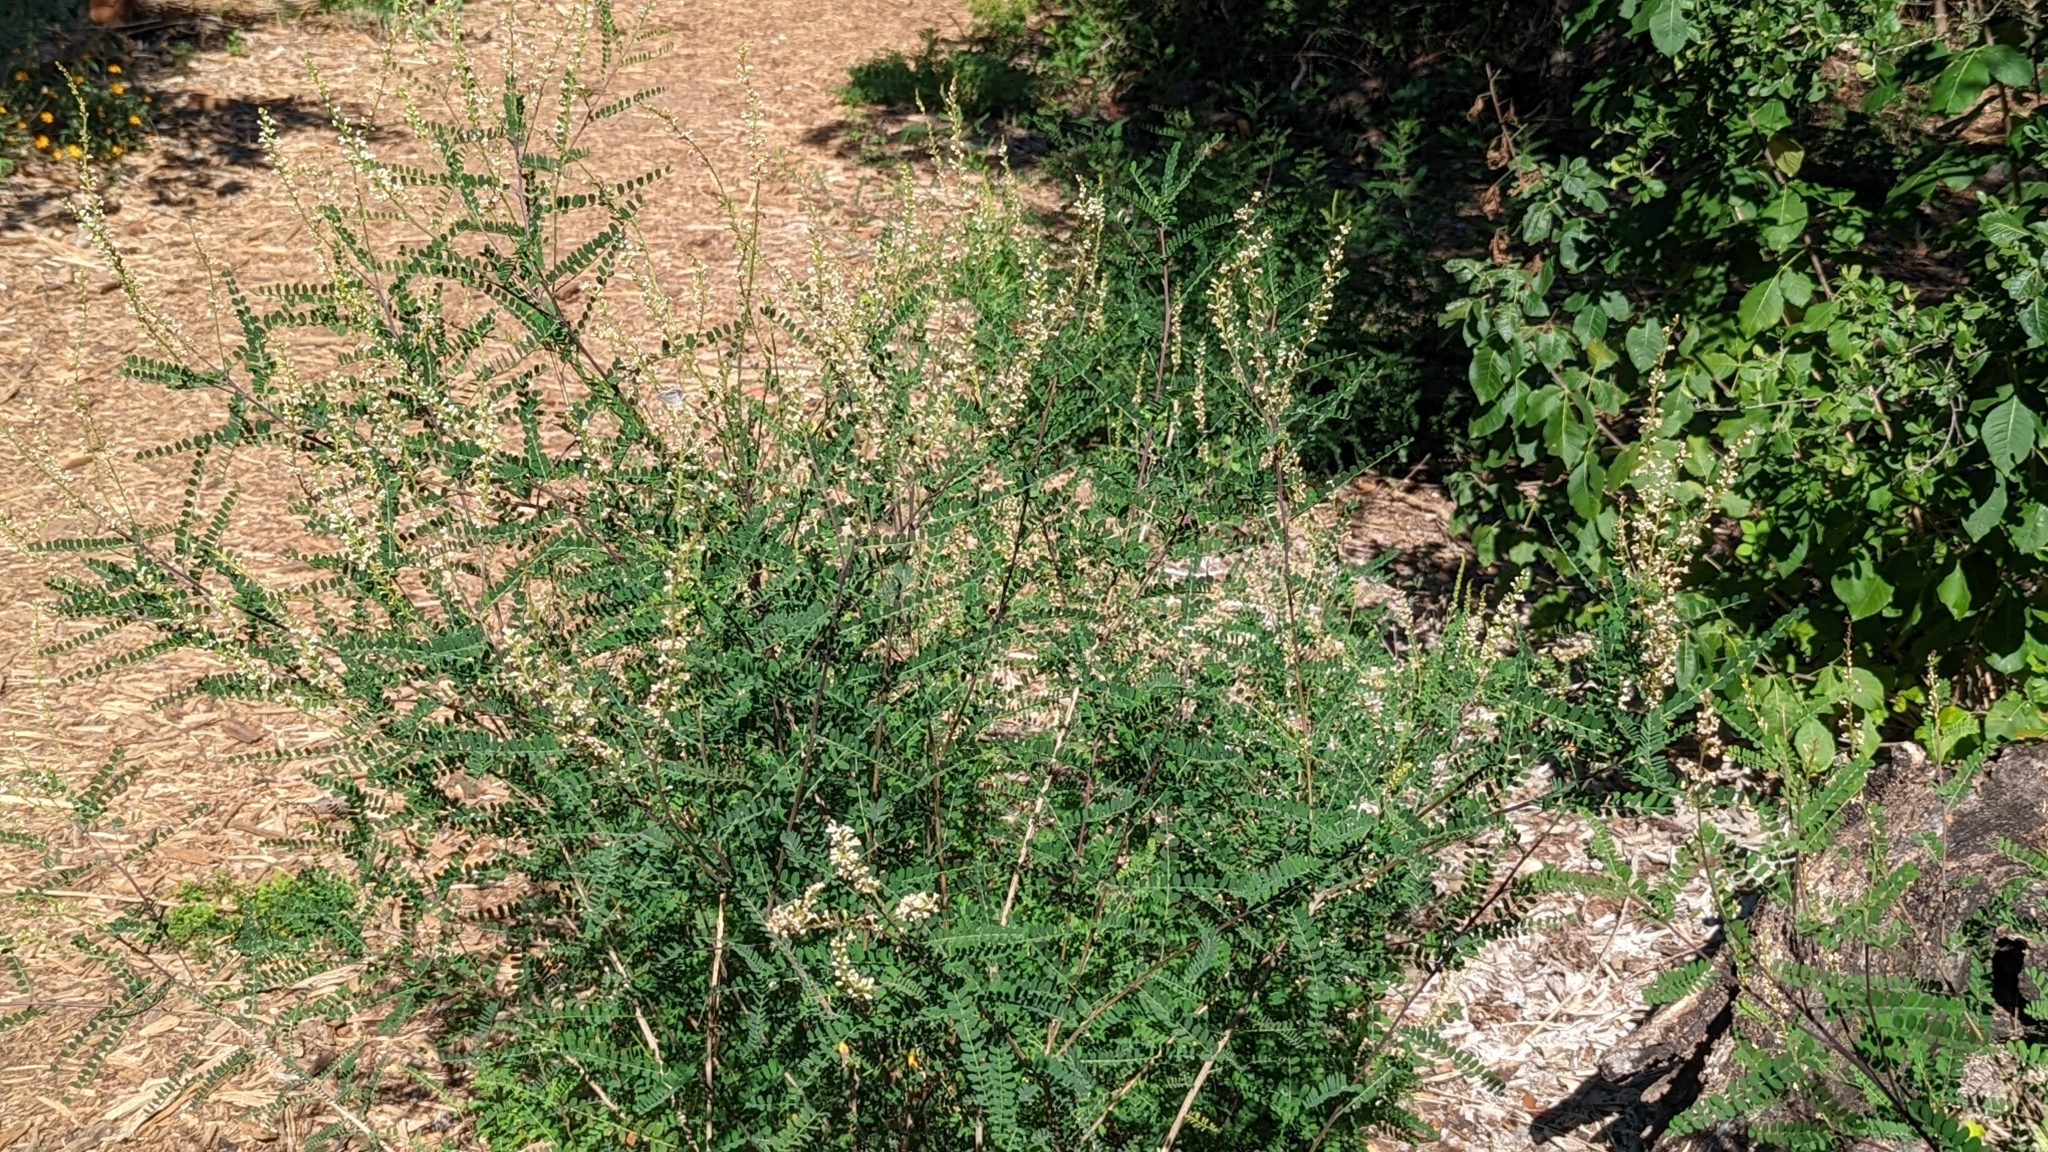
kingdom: Plantae
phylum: Tracheophyta
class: Magnoliopsida
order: Fabales
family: Fabaceae
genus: Eysenhardtia
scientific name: Eysenhardtia texana
